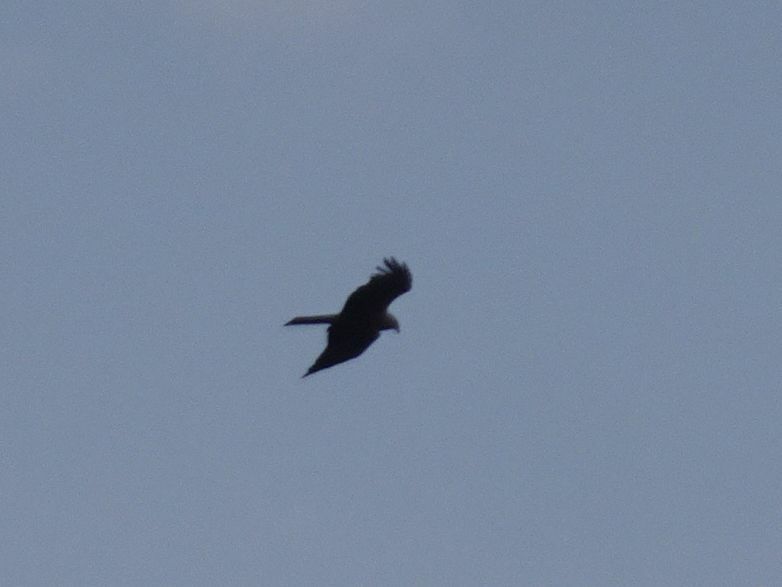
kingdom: Animalia
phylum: Chordata
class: Aves
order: Accipitriformes
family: Accipitridae
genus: Milvus
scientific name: Milvus migrans
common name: Black kite
